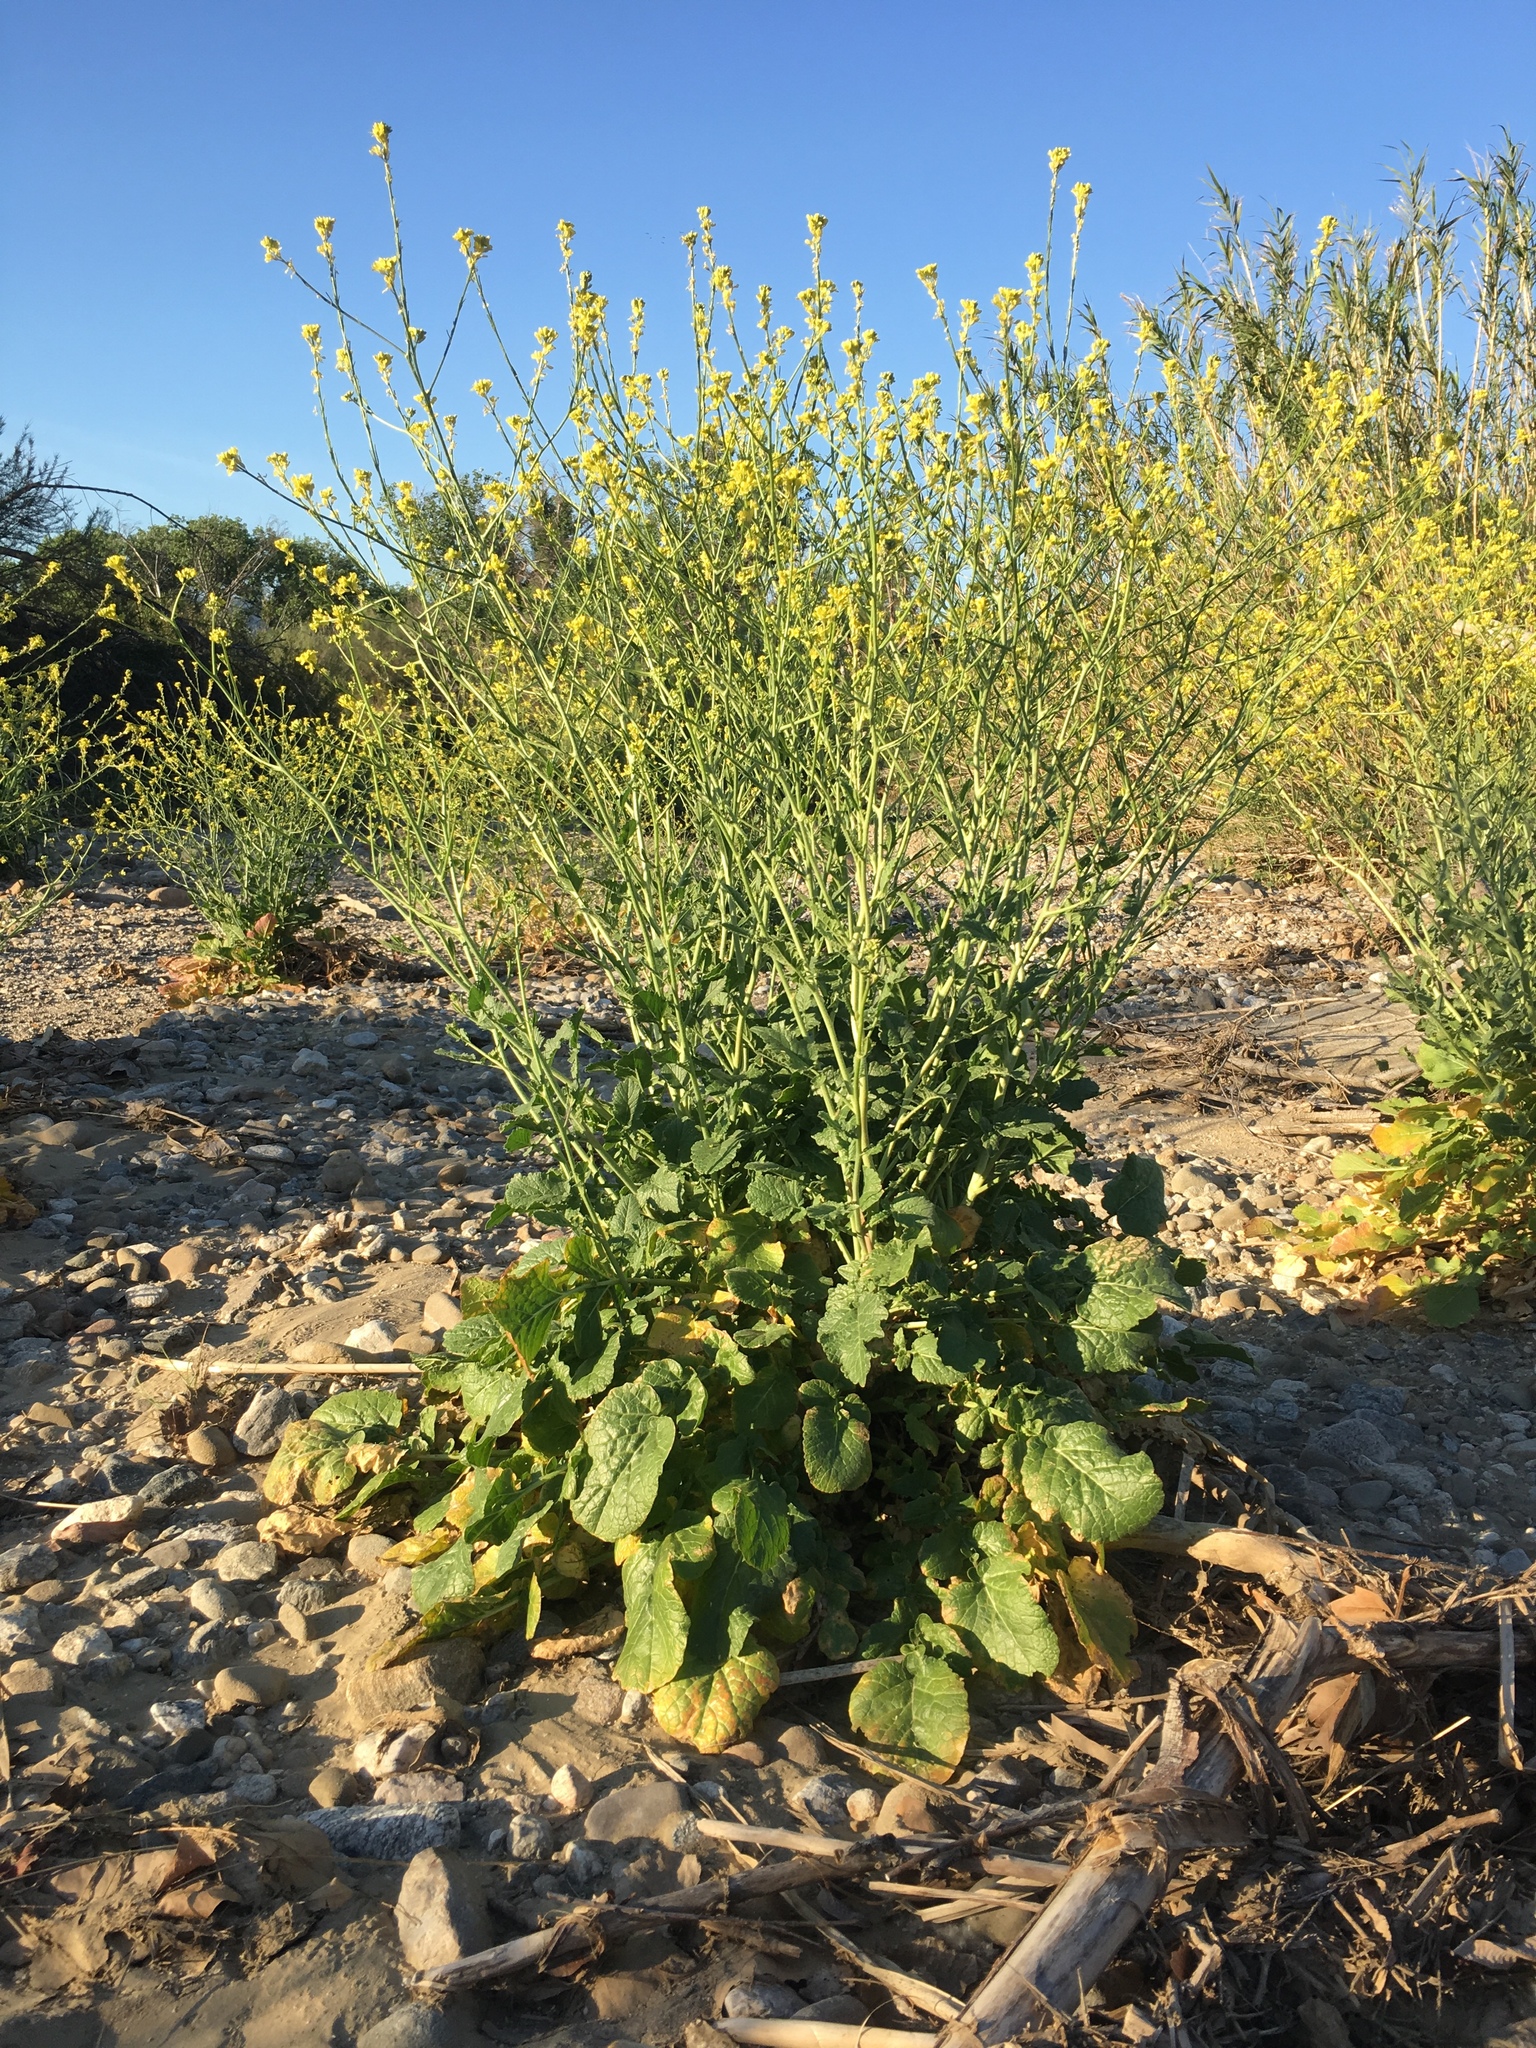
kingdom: Plantae
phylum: Tracheophyta
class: Magnoliopsida
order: Brassicales
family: Brassicaceae
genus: Hirschfeldia
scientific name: Hirschfeldia incana
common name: Hoary mustard
